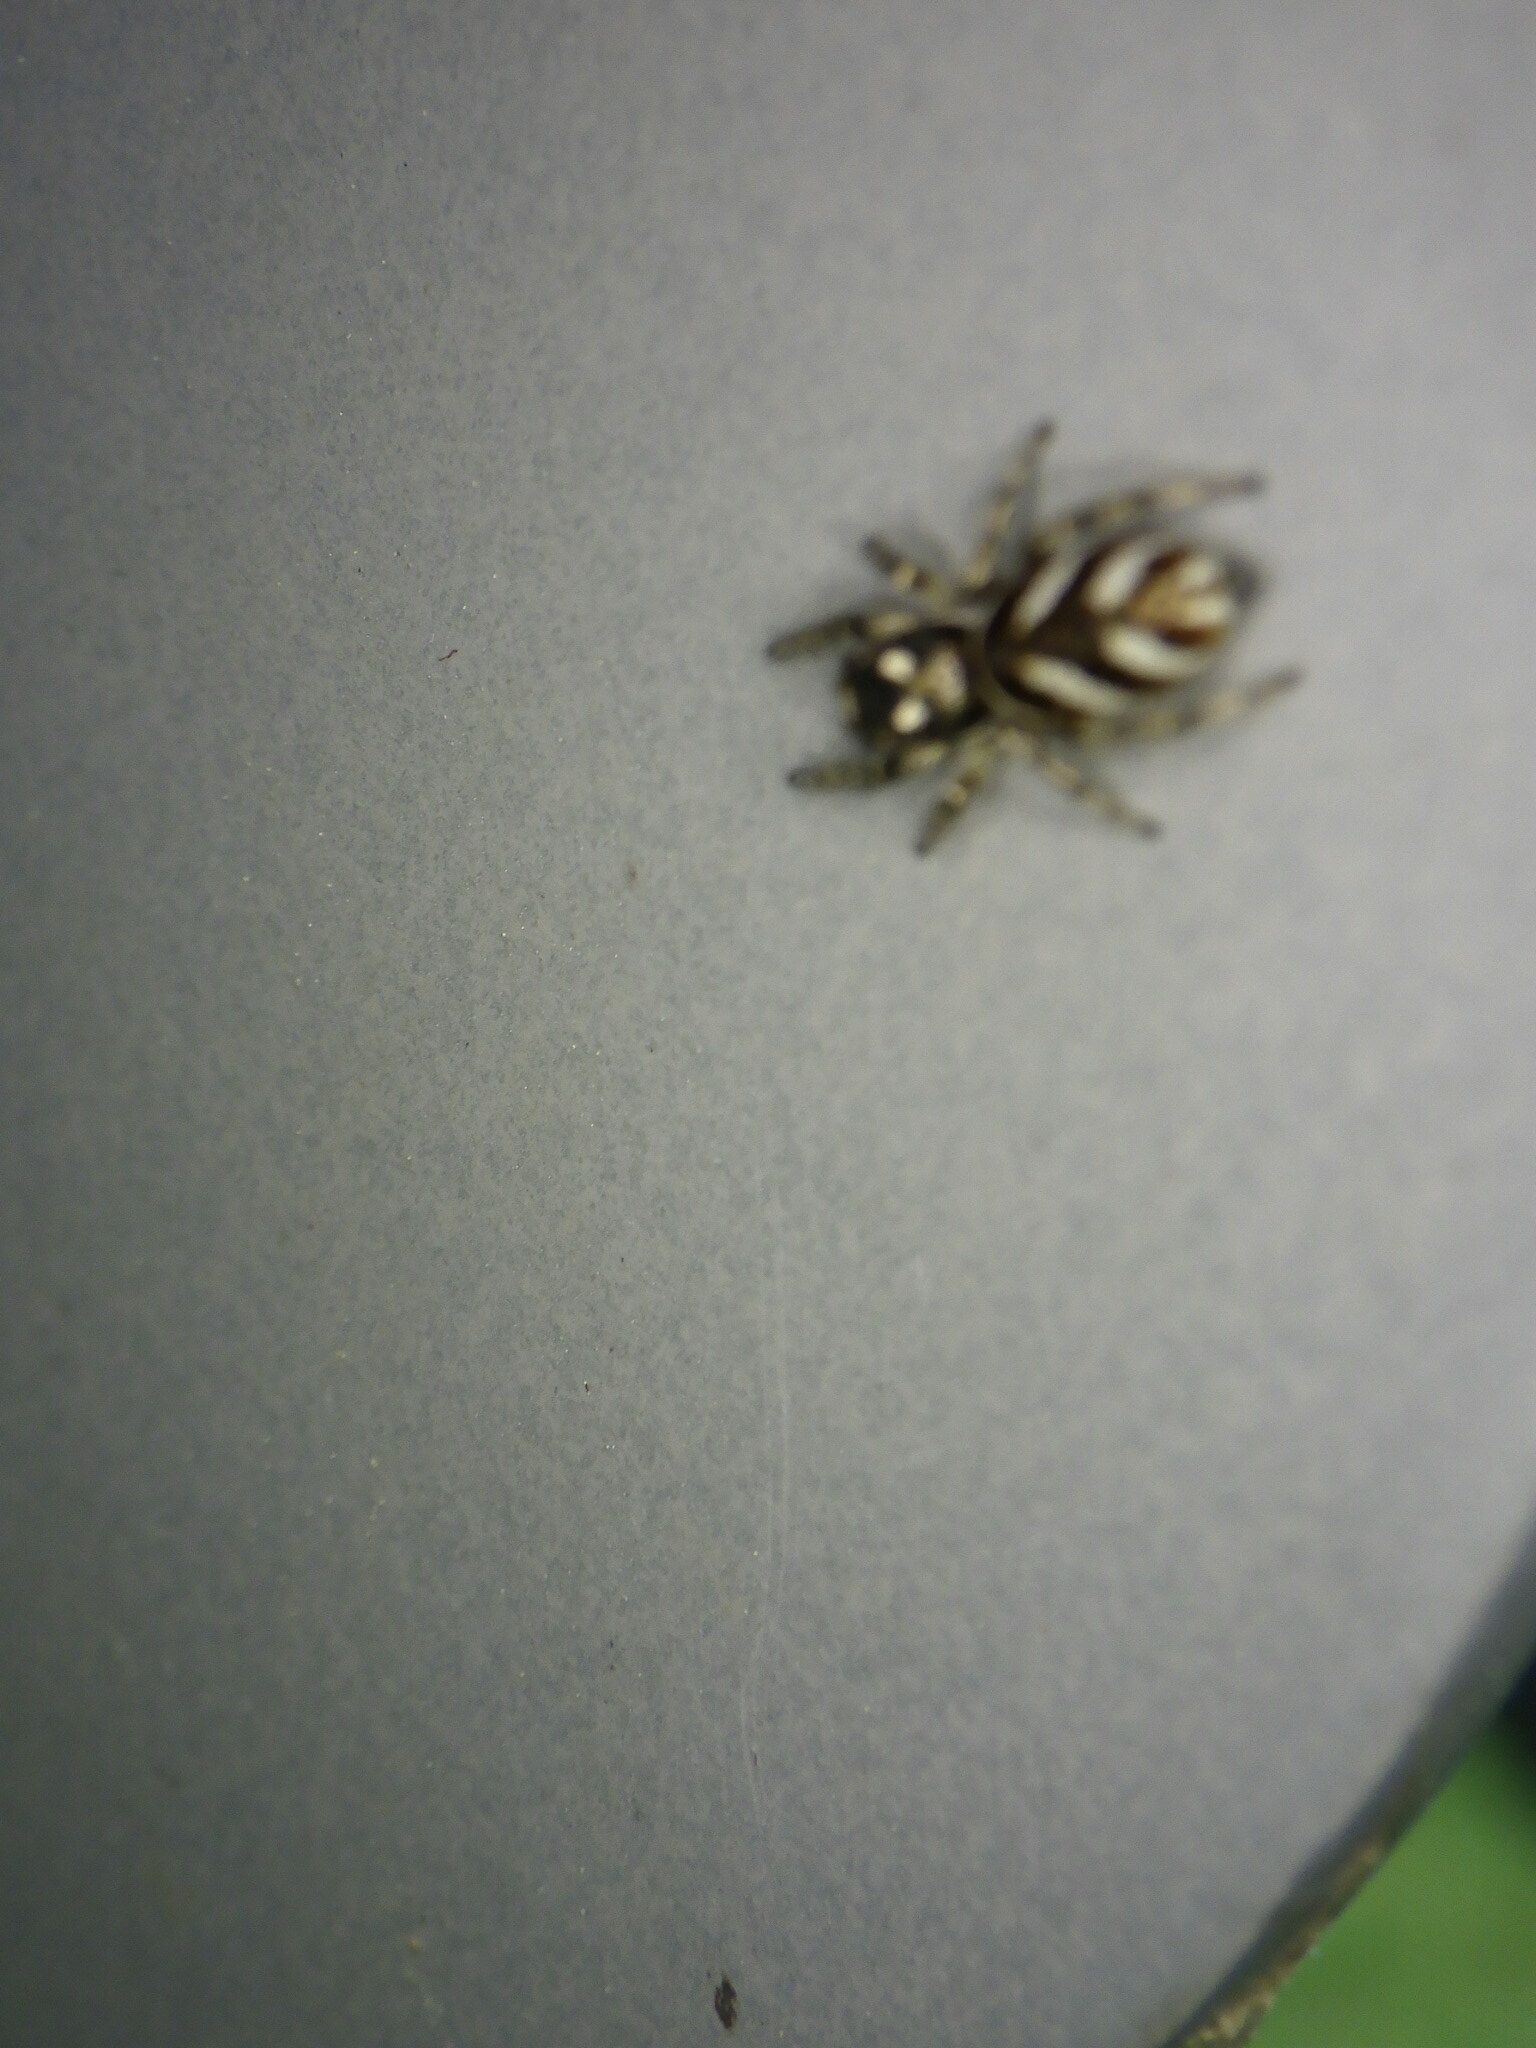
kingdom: Animalia
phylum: Arthropoda
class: Arachnida
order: Araneae
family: Salticidae
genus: Salticus
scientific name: Salticus scenicus
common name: Zebra jumper
